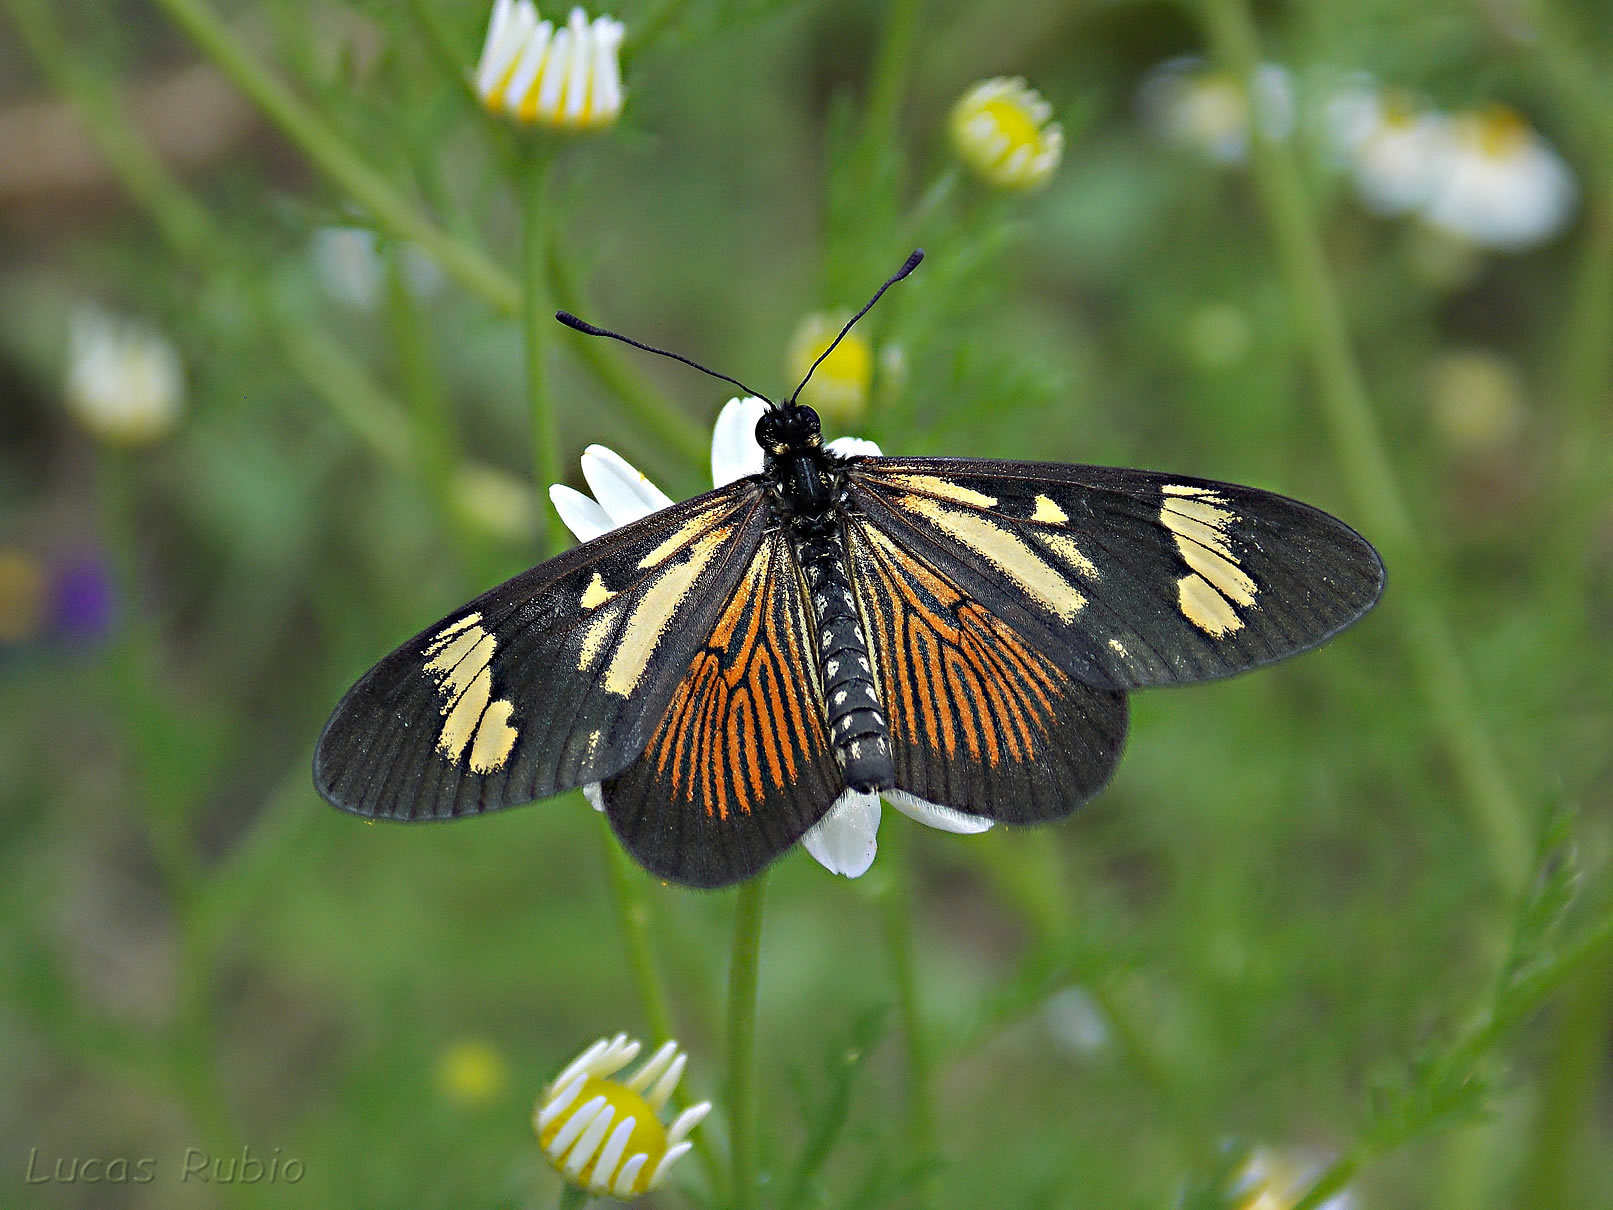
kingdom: Animalia
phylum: Arthropoda
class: Insecta
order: Lepidoptera
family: Nymphalidae
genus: Actinote
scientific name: Actinote pellenea
